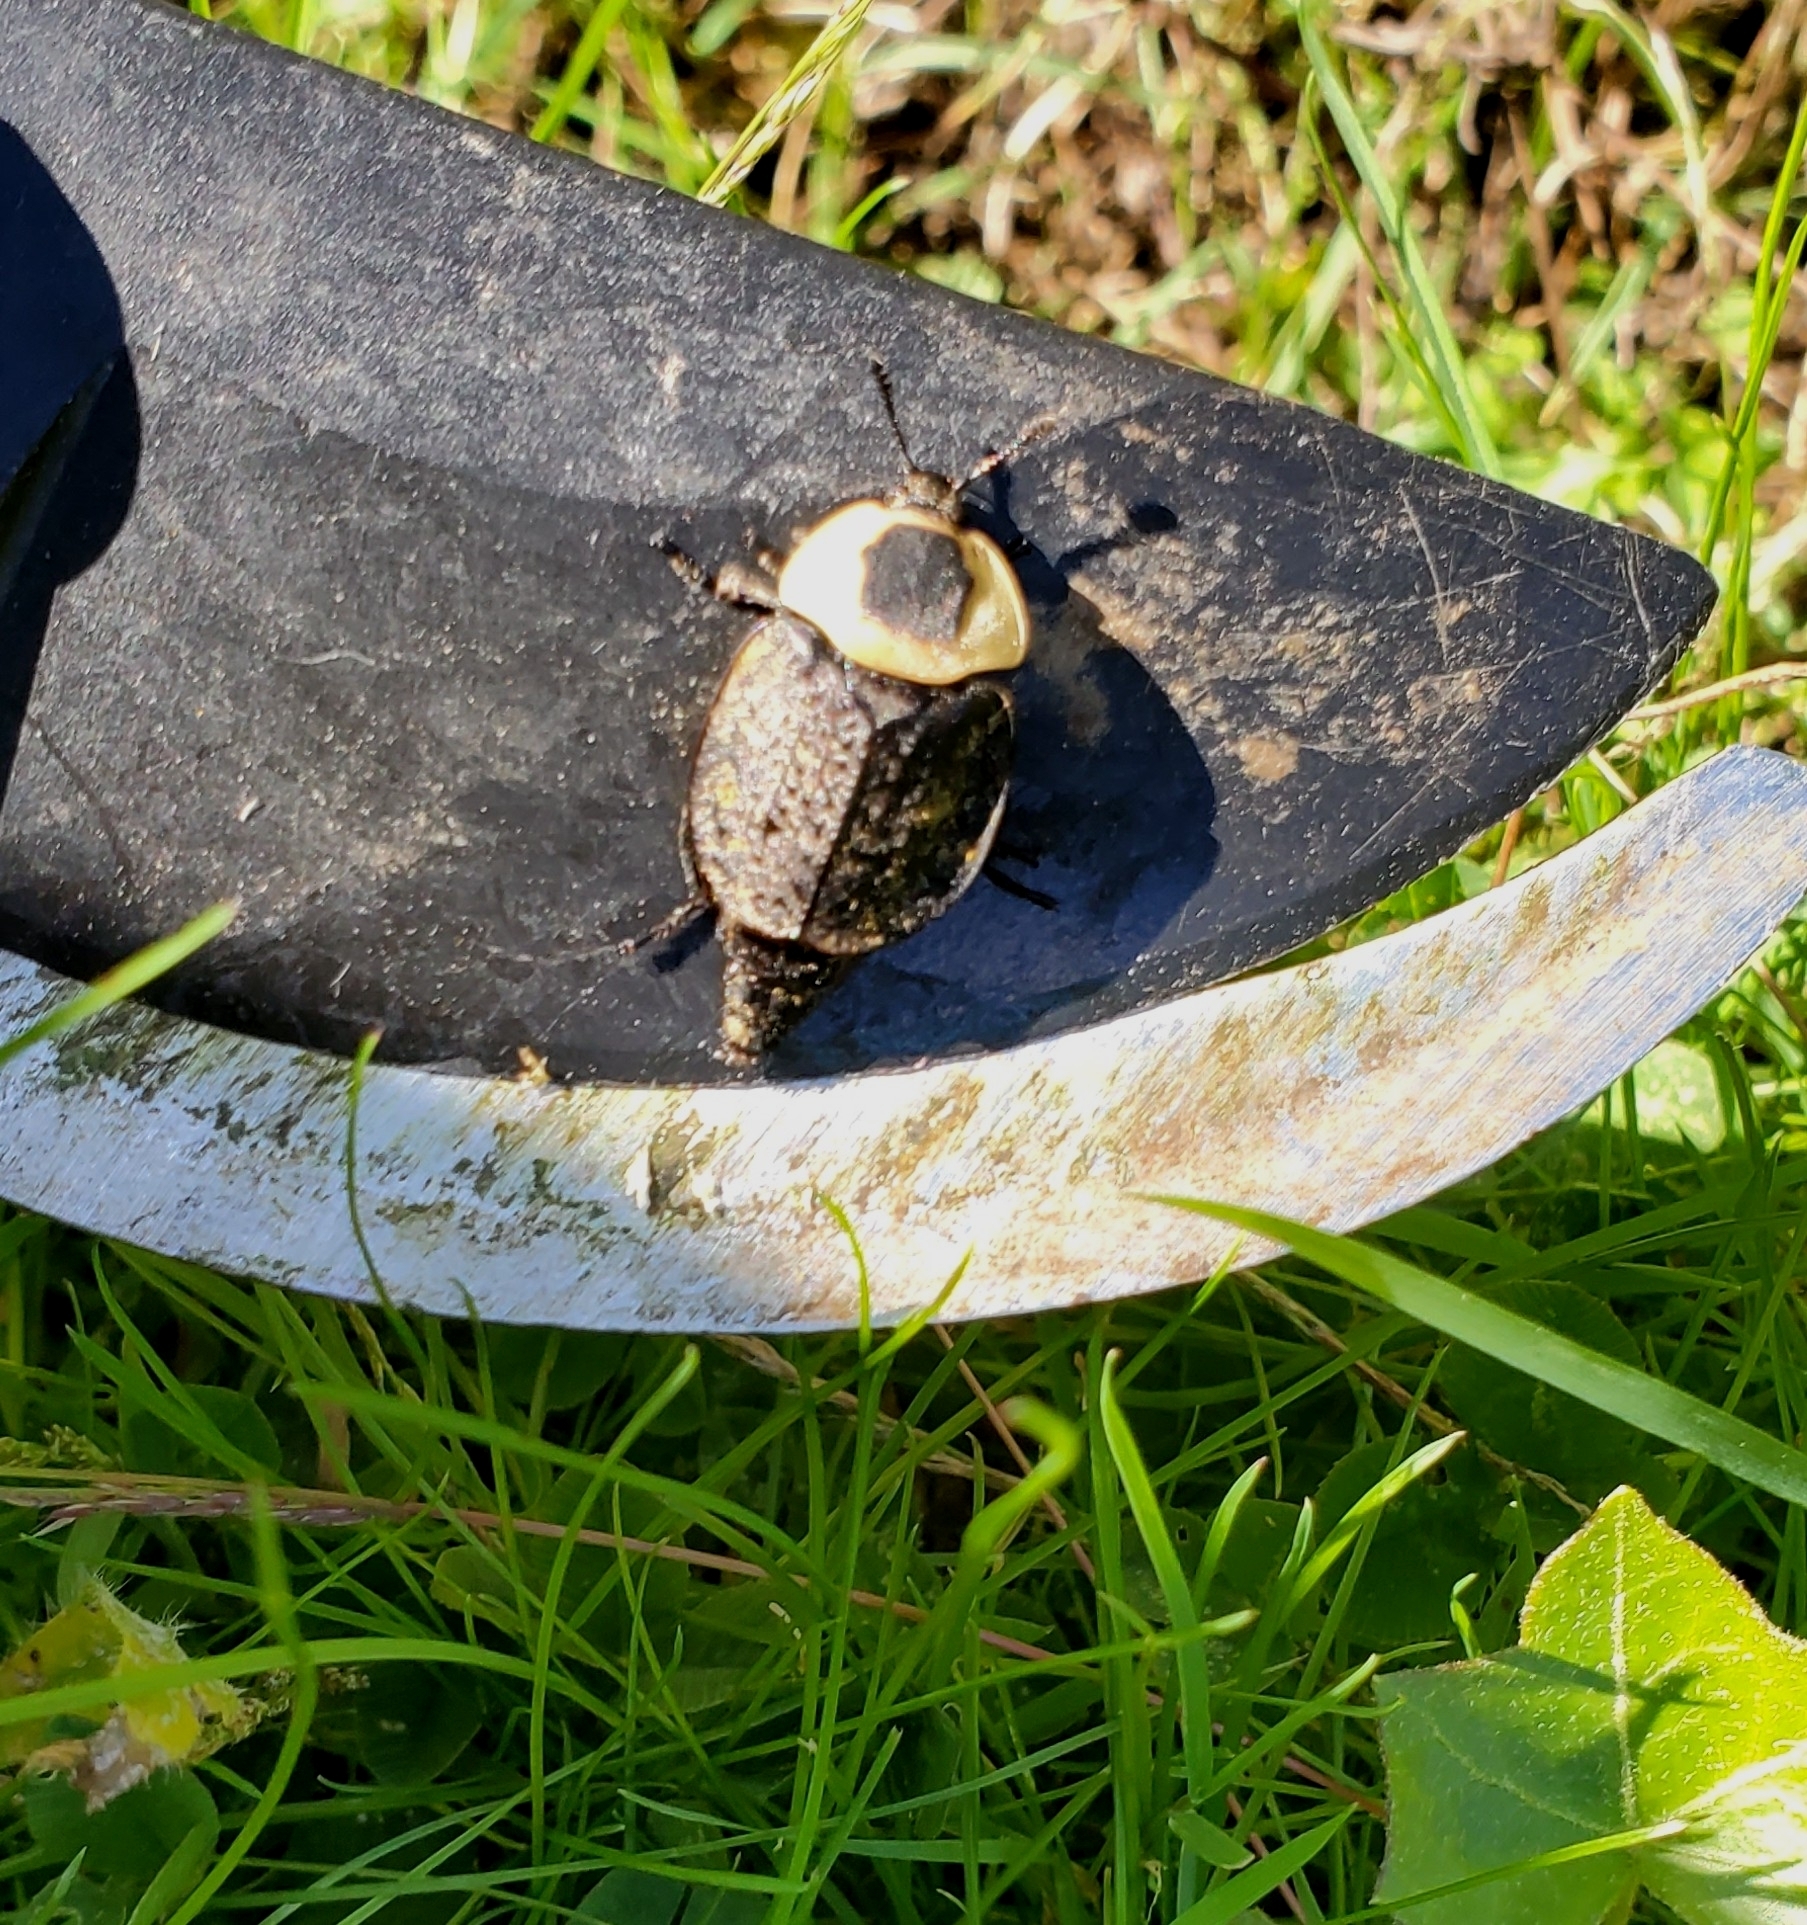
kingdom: Animalia
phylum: Arthropoda
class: Insecta
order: Coleoptera
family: Staphylinidae
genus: Necrophila
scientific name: Necrophila americana
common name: American carrion beetle
